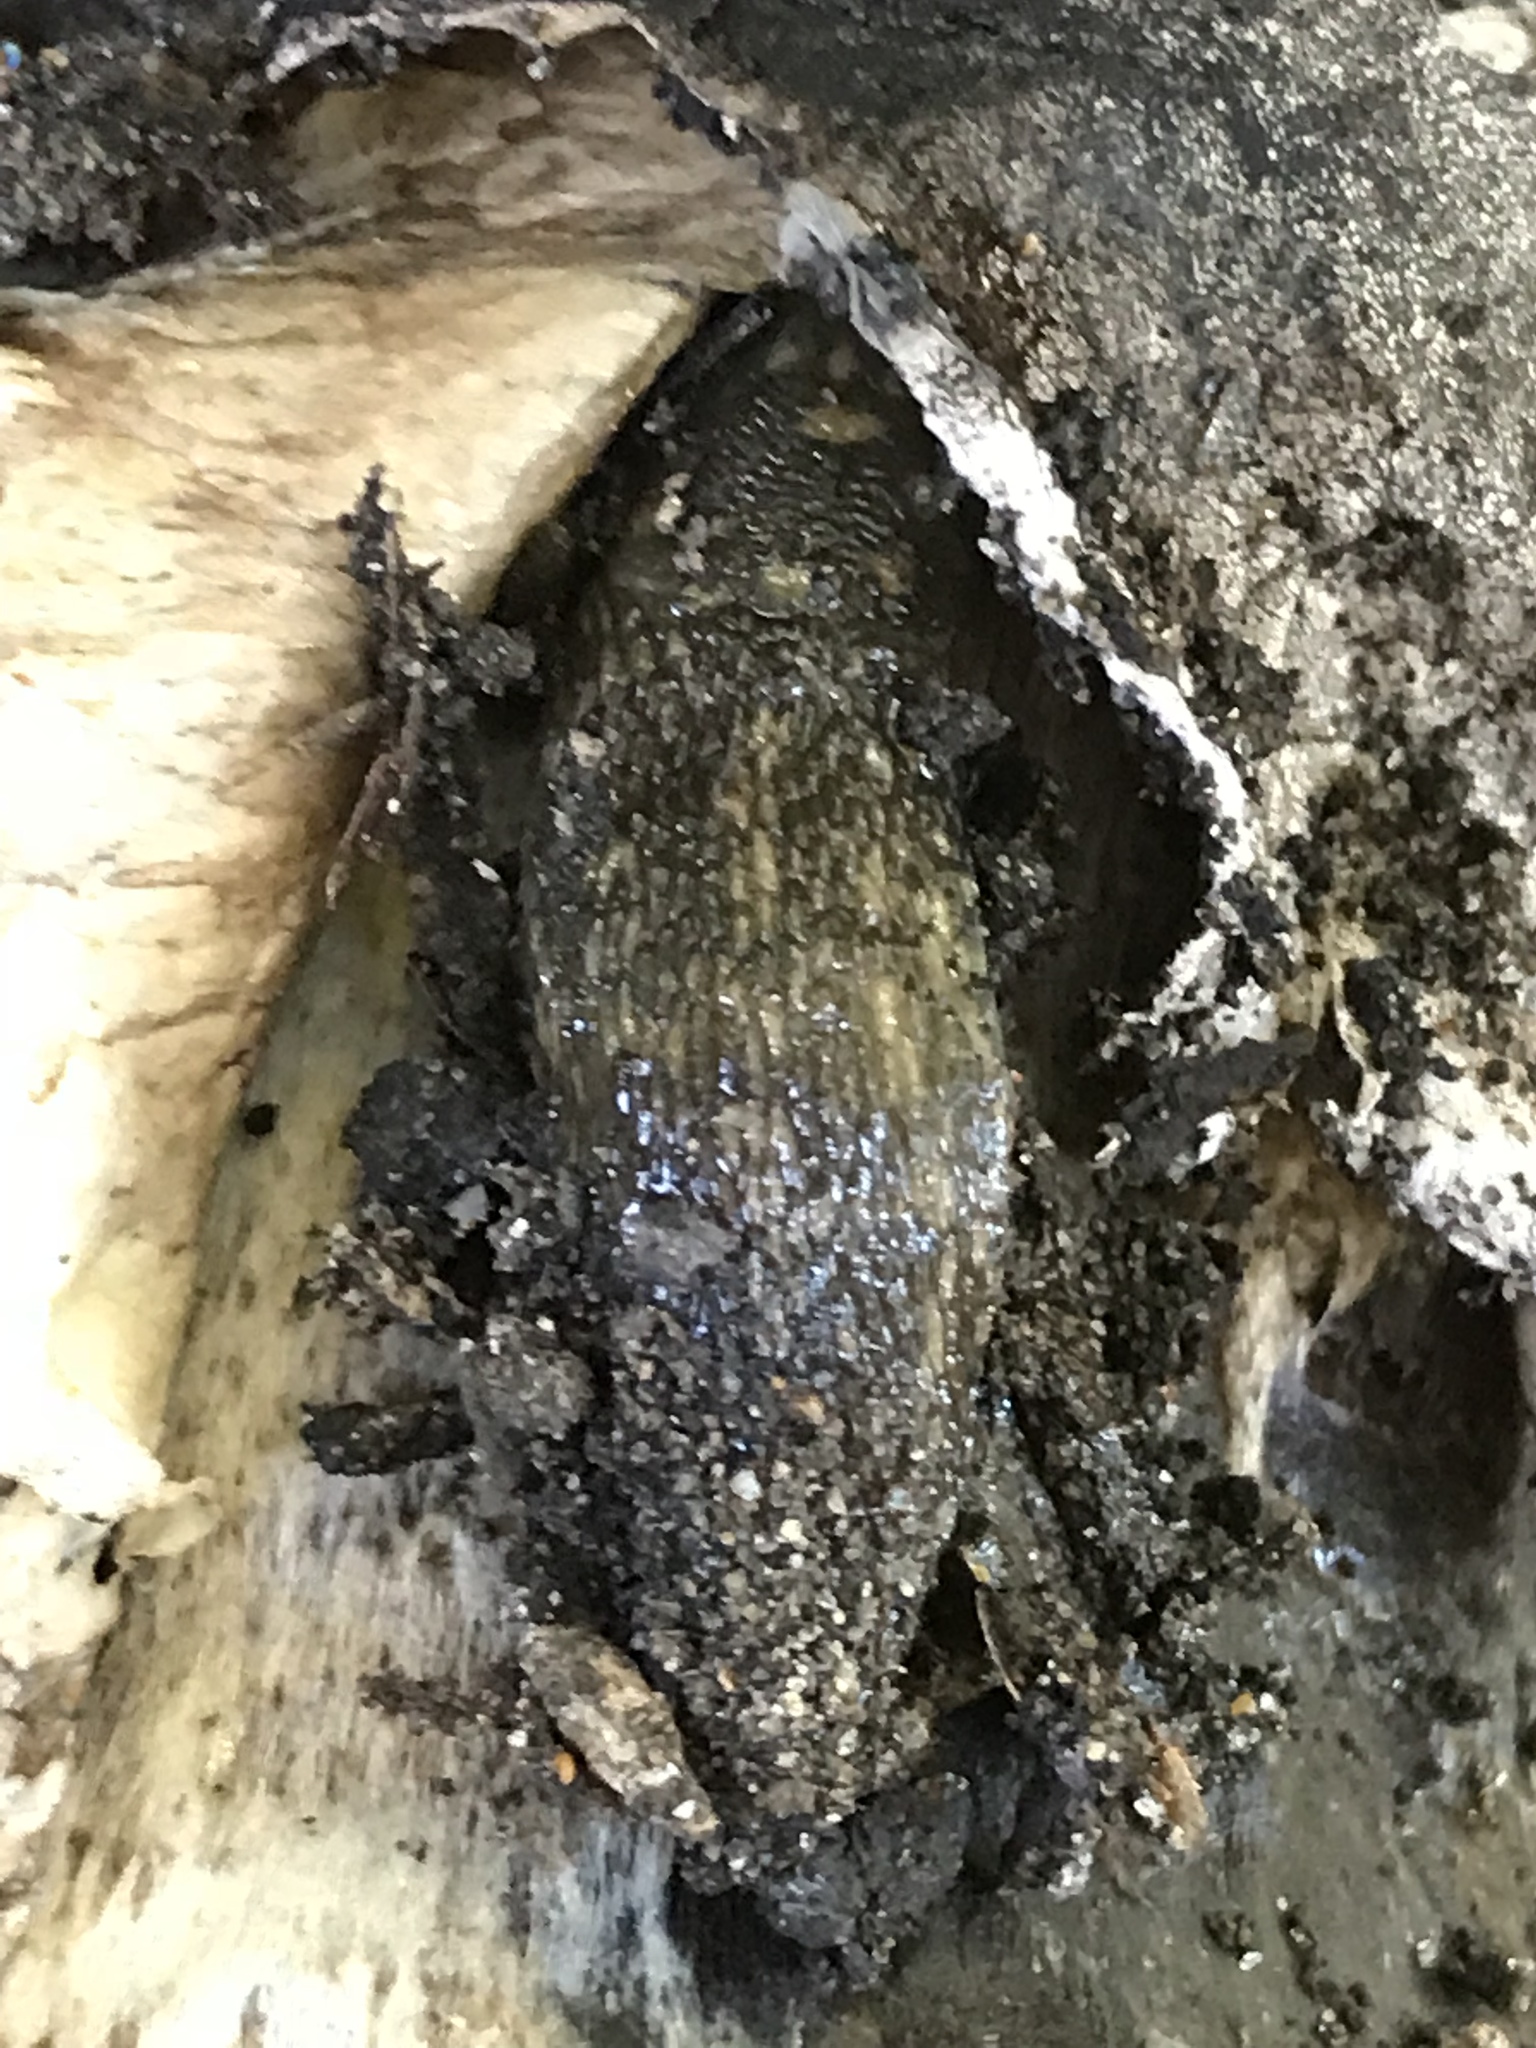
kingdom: Animalia
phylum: Mollusca
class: Gastropoda
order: Stylommatophora
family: Limacidae
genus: Limacus
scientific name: Limacus flavus
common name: Yellow gardenslug
